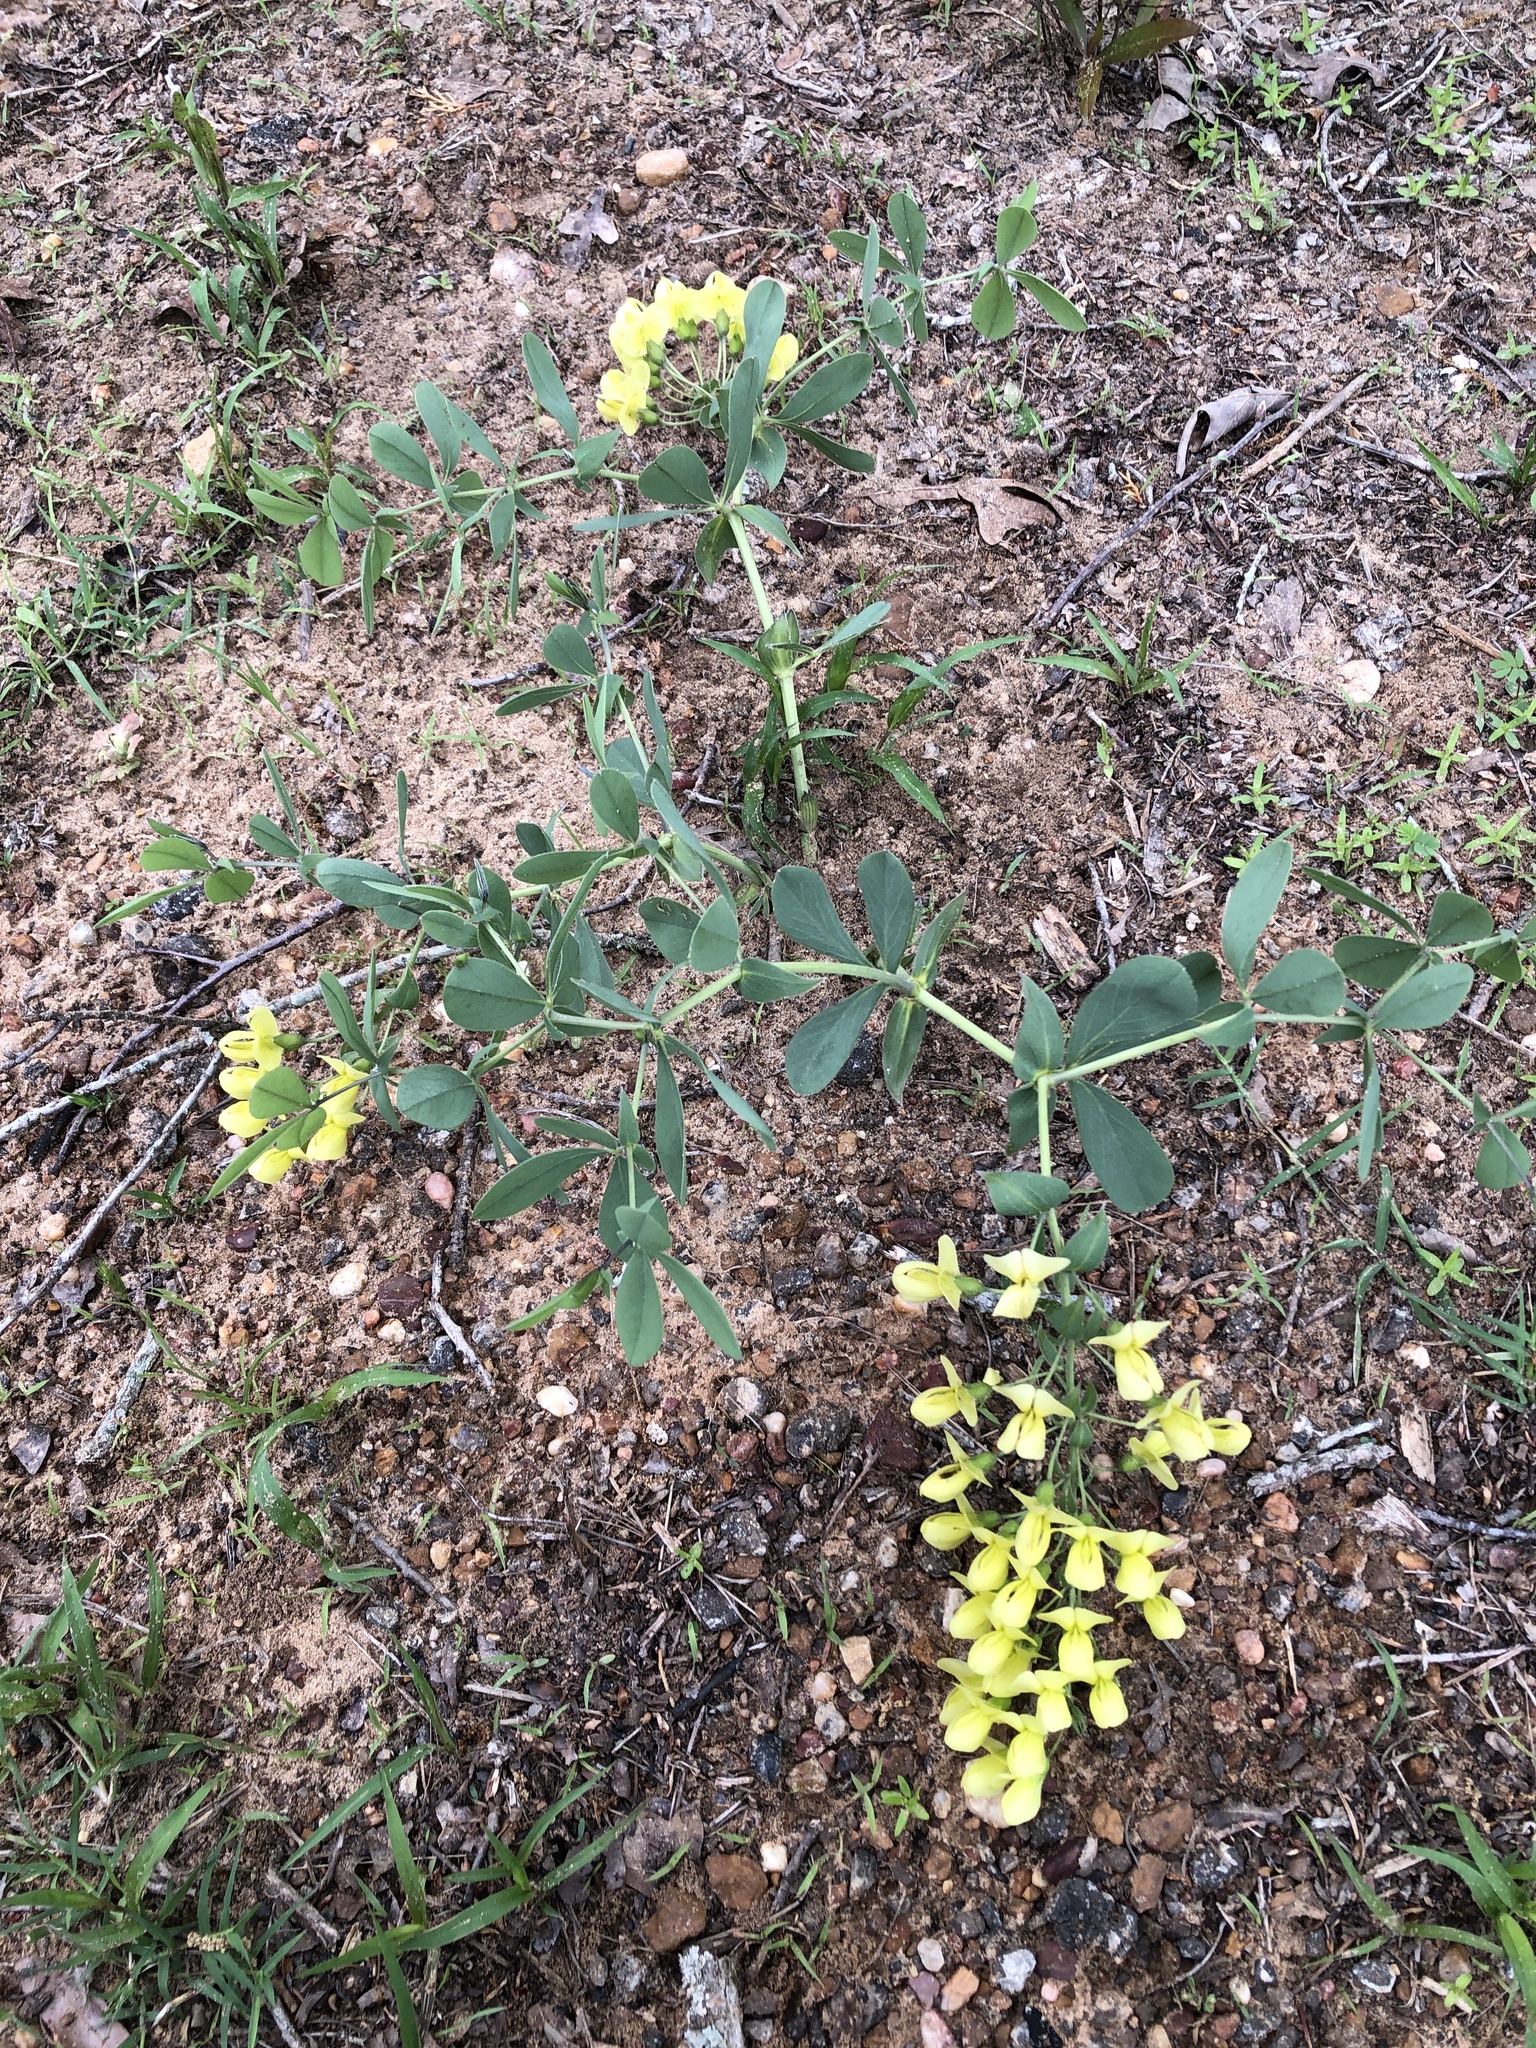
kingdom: Plantae
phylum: Tracheophyta
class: Magnoliopsida
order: Fabales
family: Fabaceae
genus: Baptisia
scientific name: Baptisia bracteata
